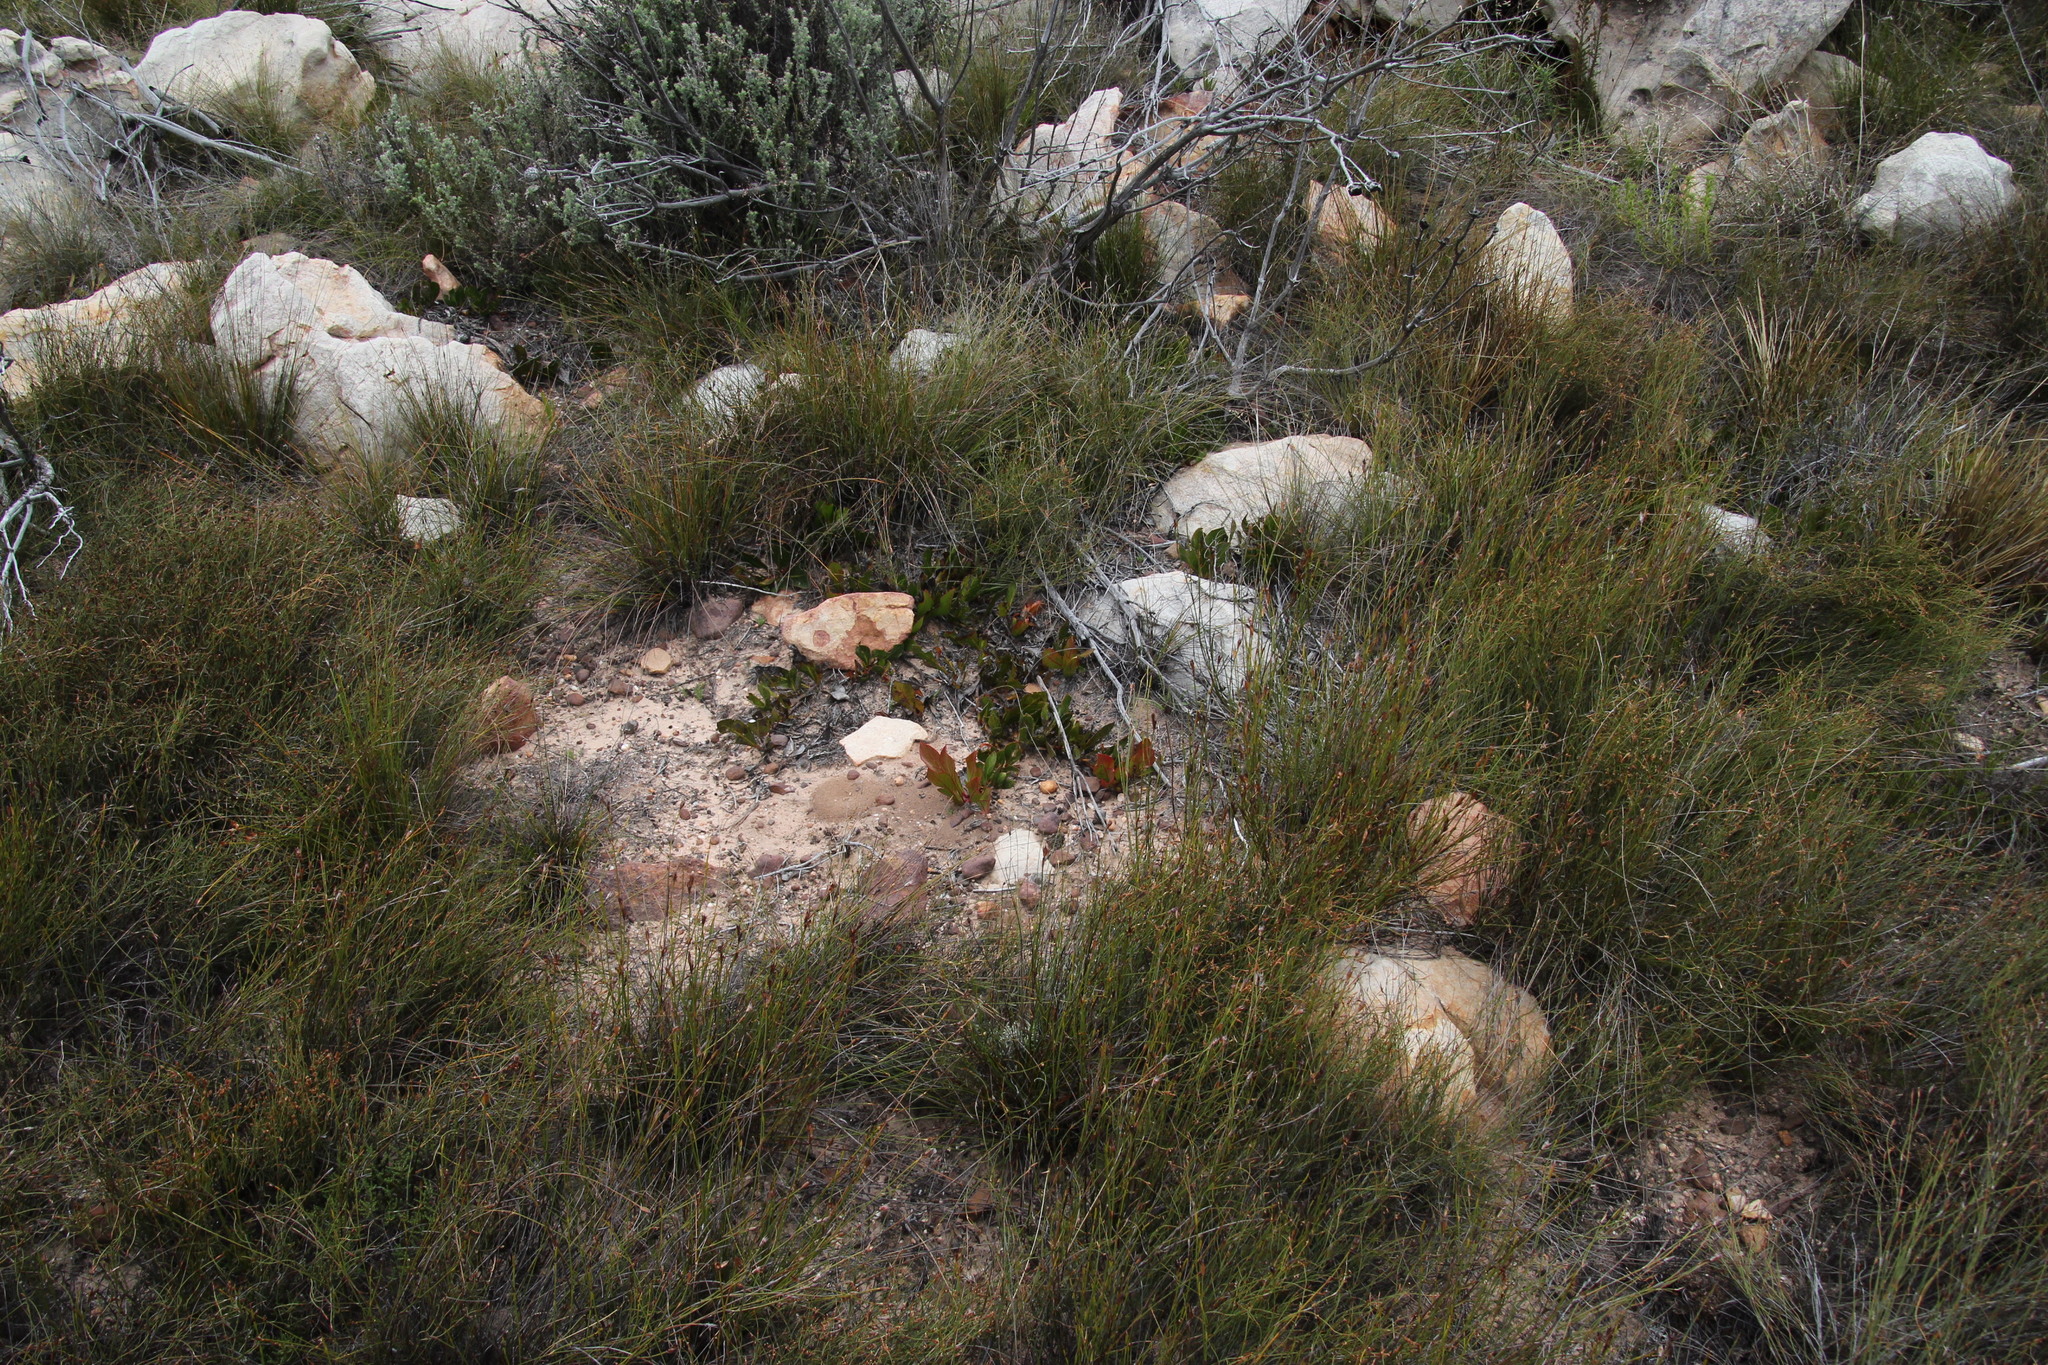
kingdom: Plantae
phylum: Tracheophyta
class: Magnoliopsida
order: Proteales
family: Proteaceae
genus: Protea
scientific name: Protea acaulos
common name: Common ground sugarbush
